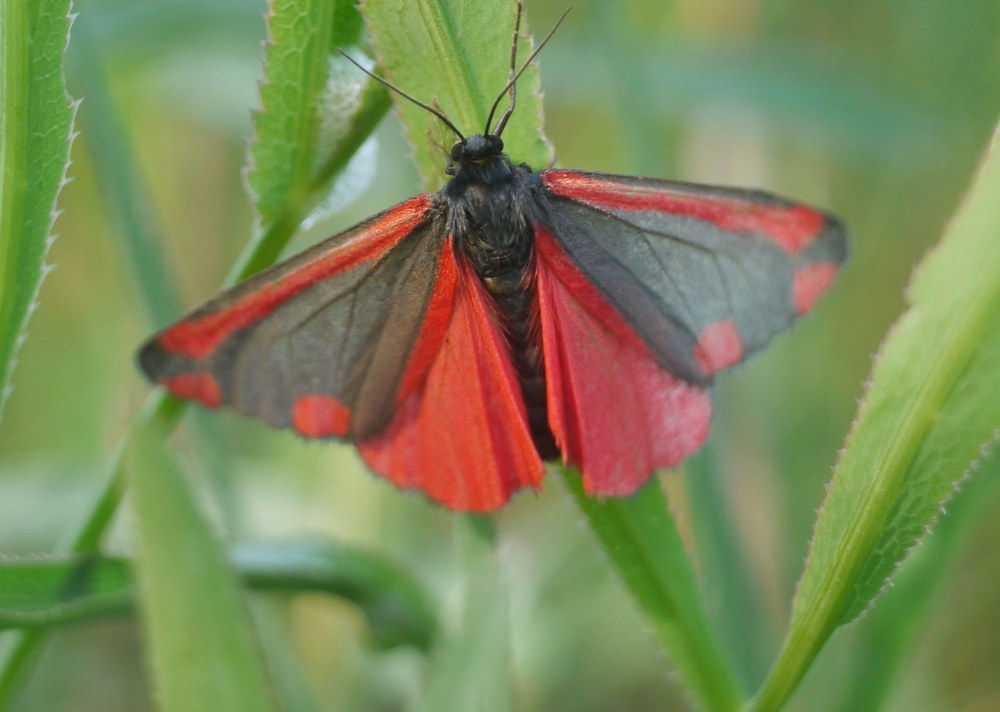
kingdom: Animalia
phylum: Arthropoda
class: Insecta
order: Lepidoptera
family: Erebidae
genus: Tyria
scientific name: Tyria jacobaeae
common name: Cinnabar
